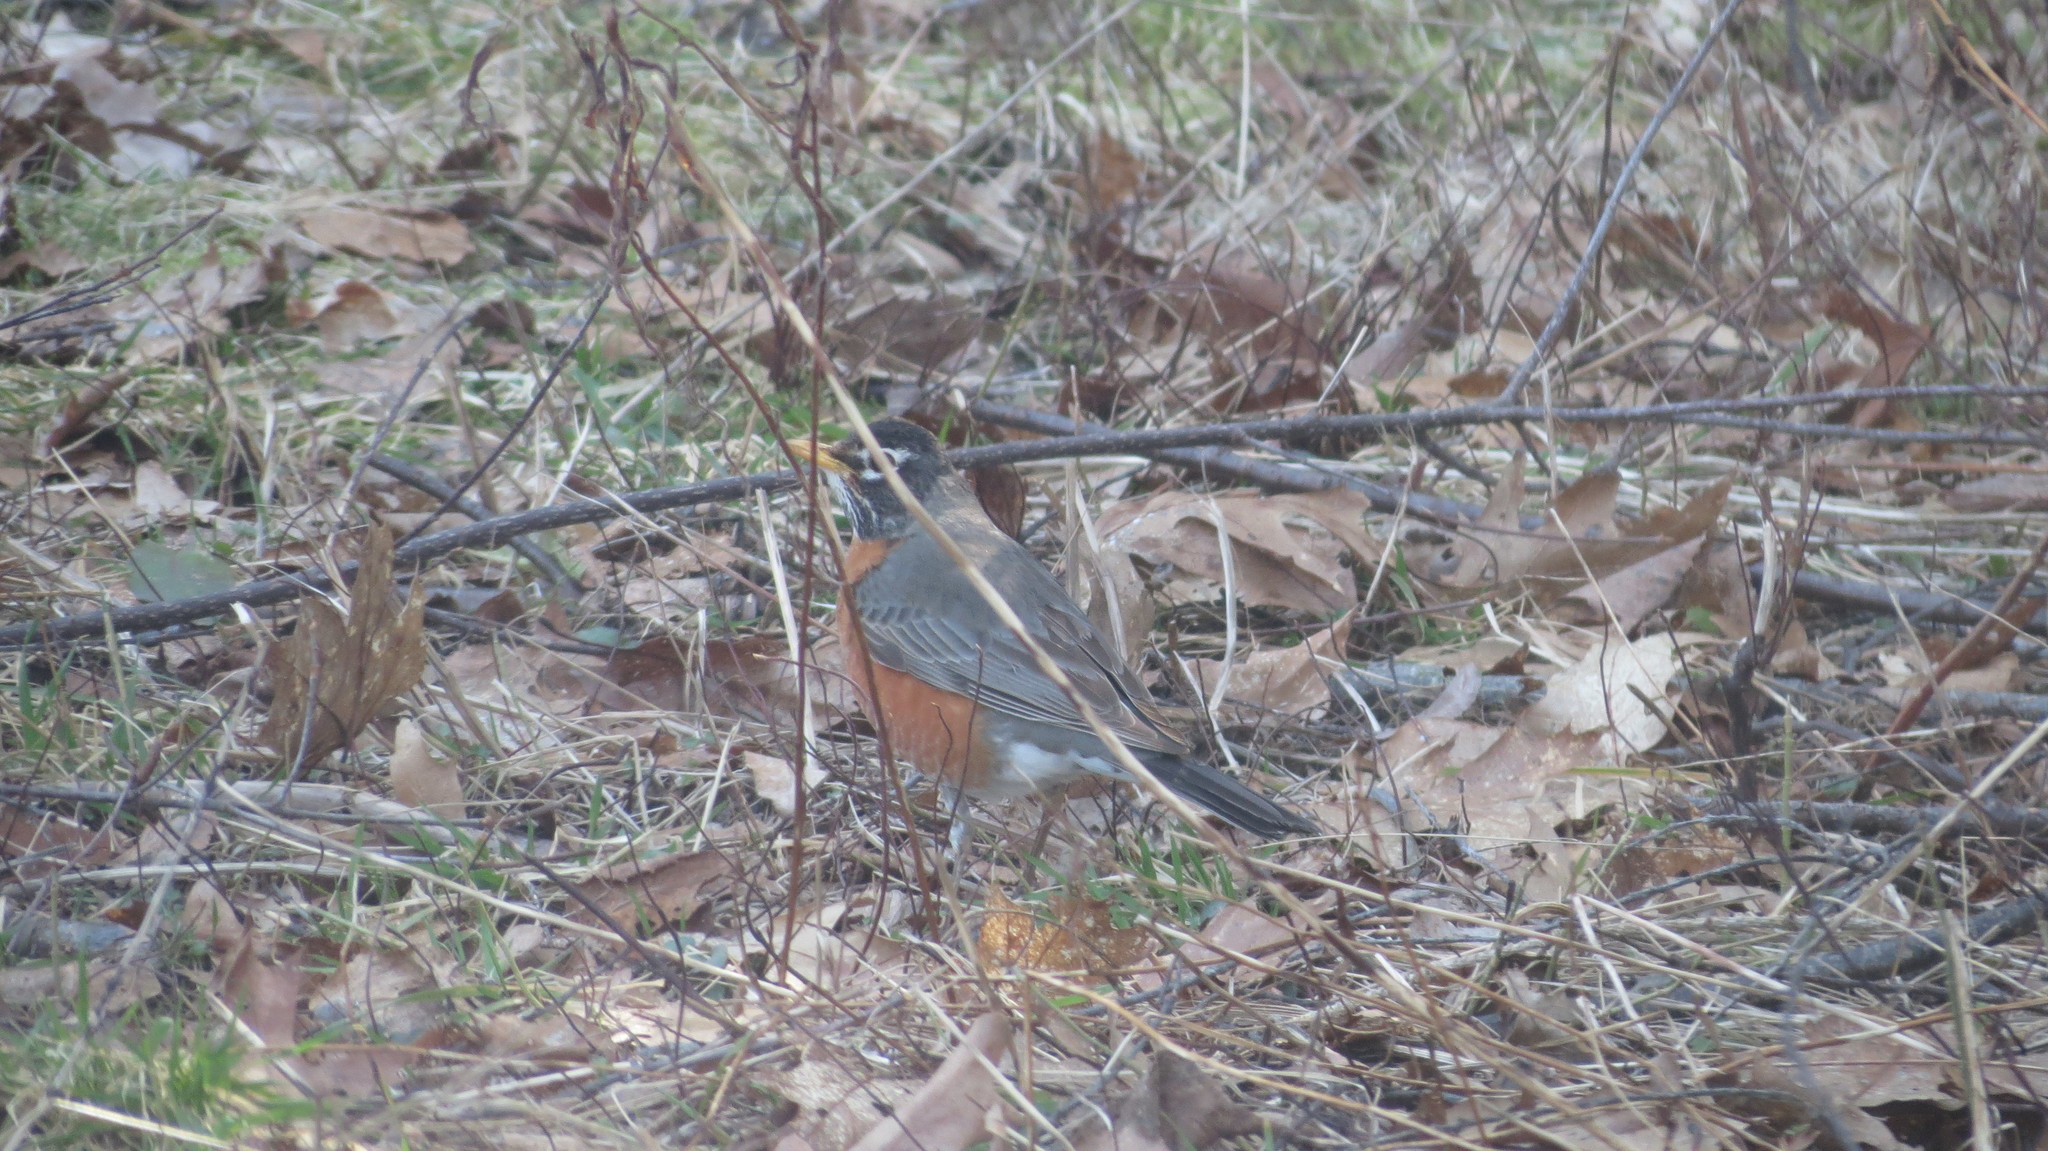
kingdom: Animalia
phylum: Chordata
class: Aves
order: Passeriformes
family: Turdidae
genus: Turdus
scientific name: Turdus migratorius
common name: American robin
